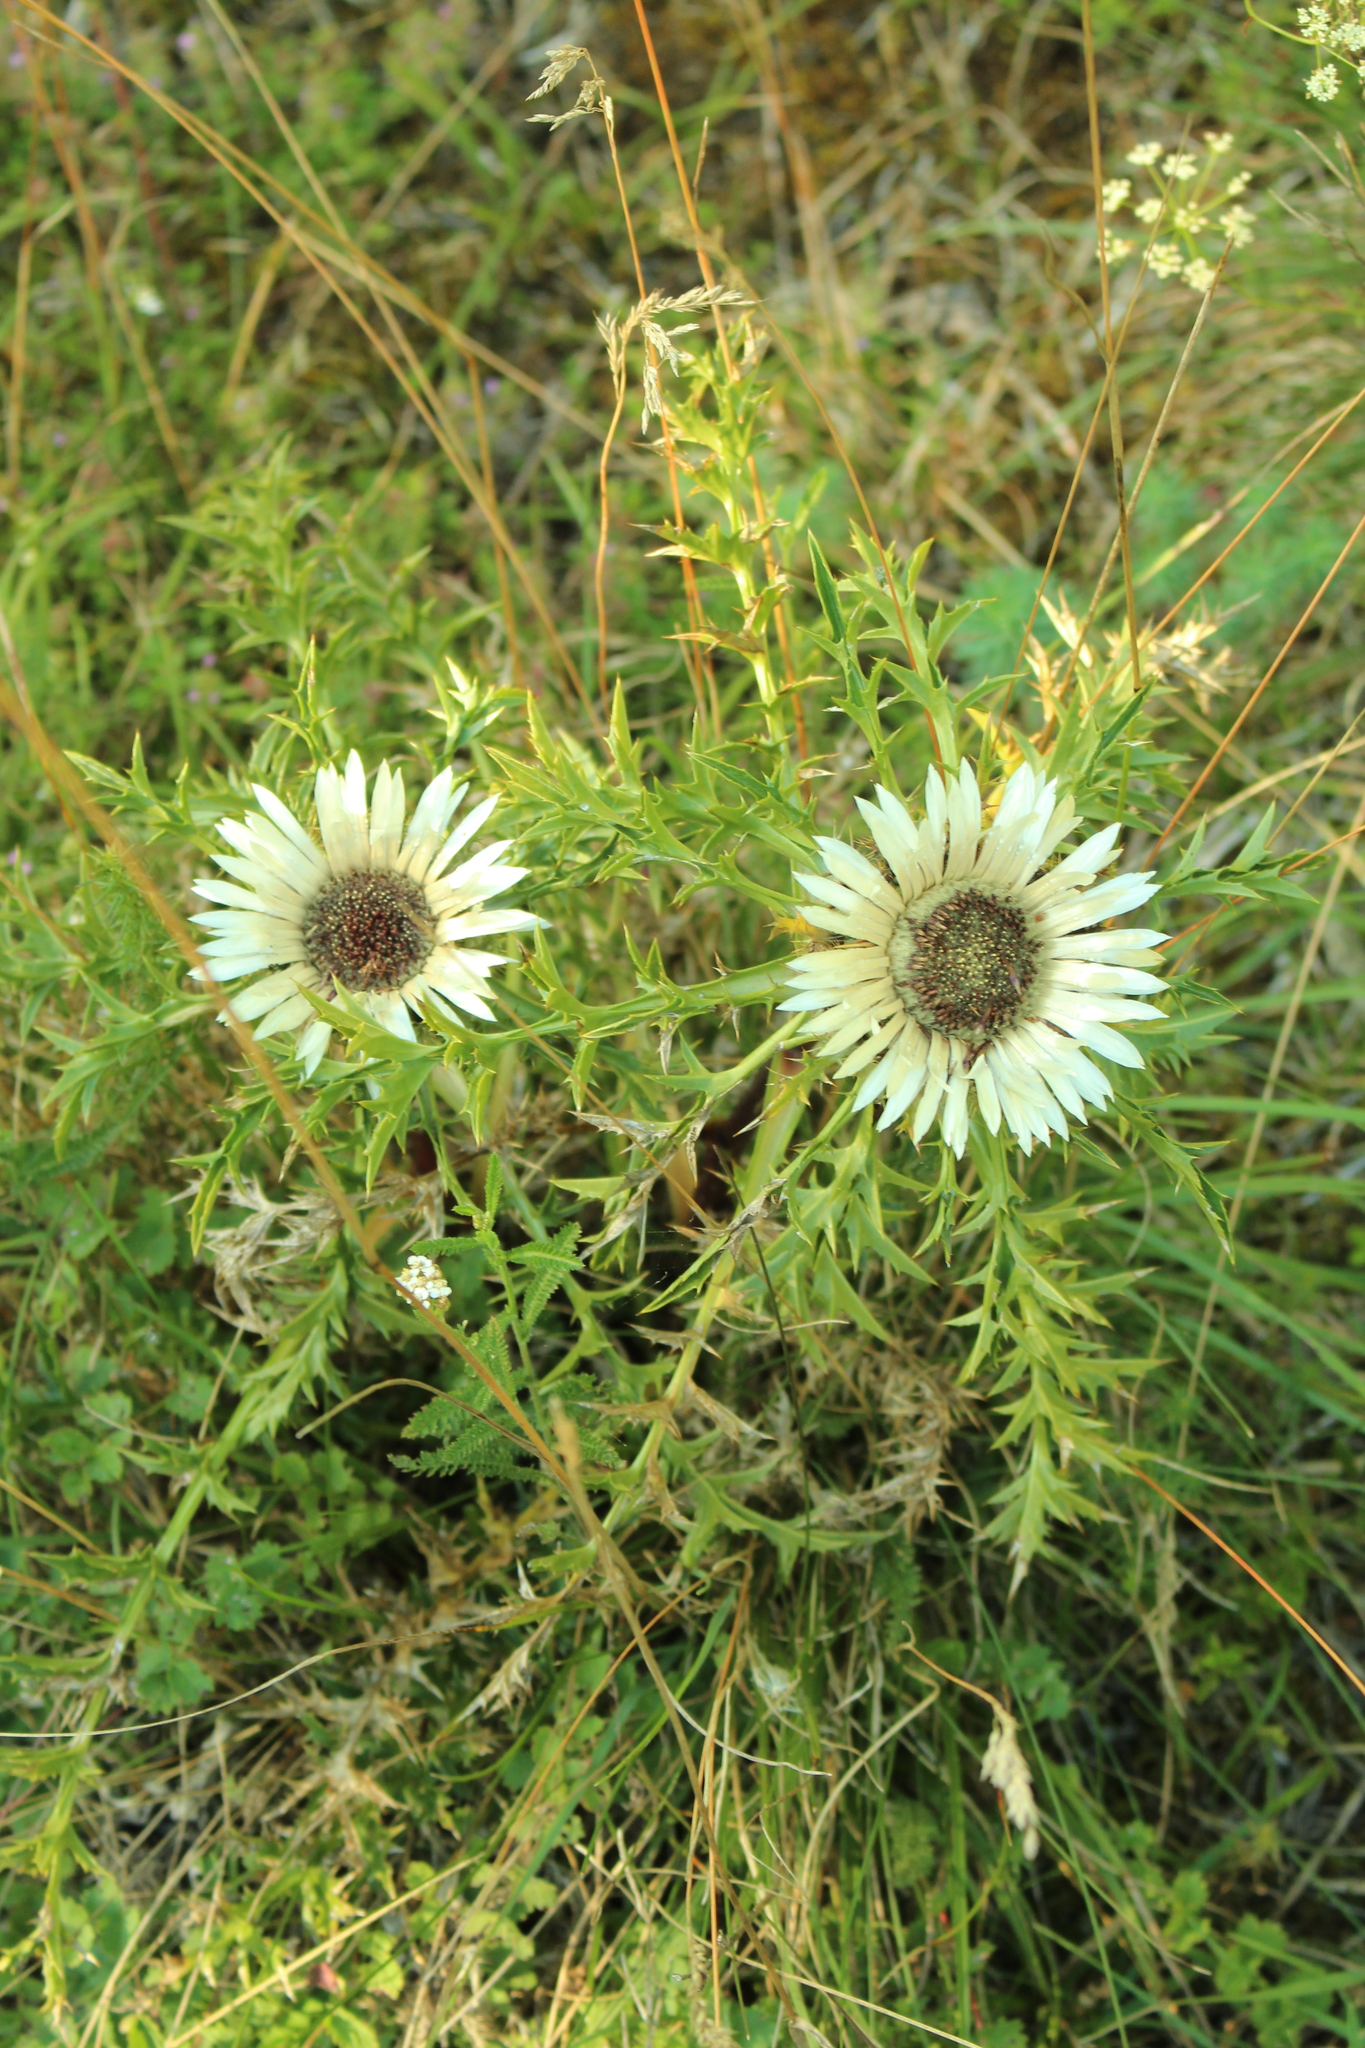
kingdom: Plantae
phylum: Tracheophyta
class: Magnoliopsida
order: Asterales
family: Asteraceae
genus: Carlina
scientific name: Carlina acaulis
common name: Stemless carline thistle
